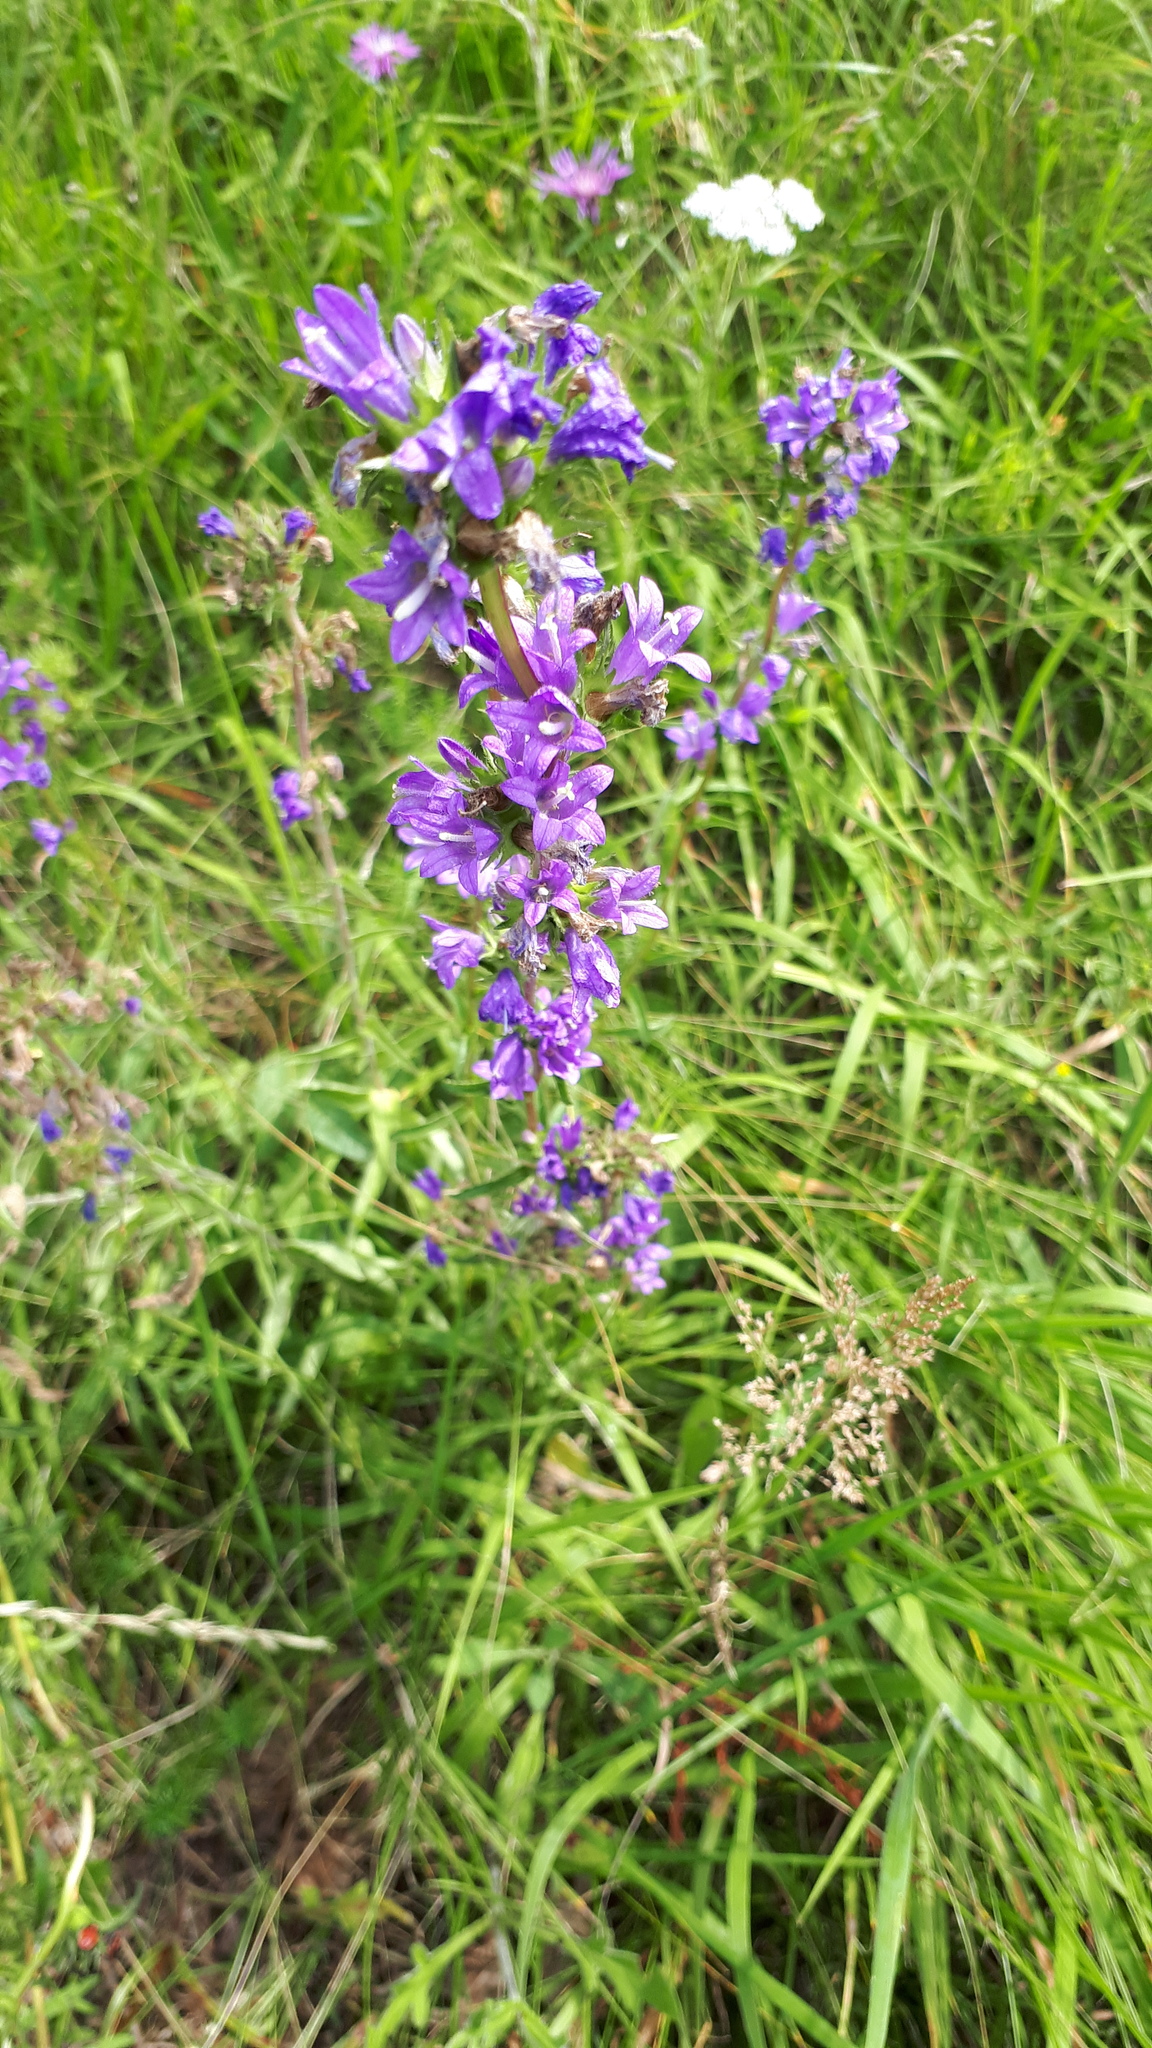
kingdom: Plantae
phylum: Tracheophyta
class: Magnoliopsida
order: Asterales
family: Campanulaceae
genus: Campanula
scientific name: Campanula glomerata
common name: Clustered bellflower
